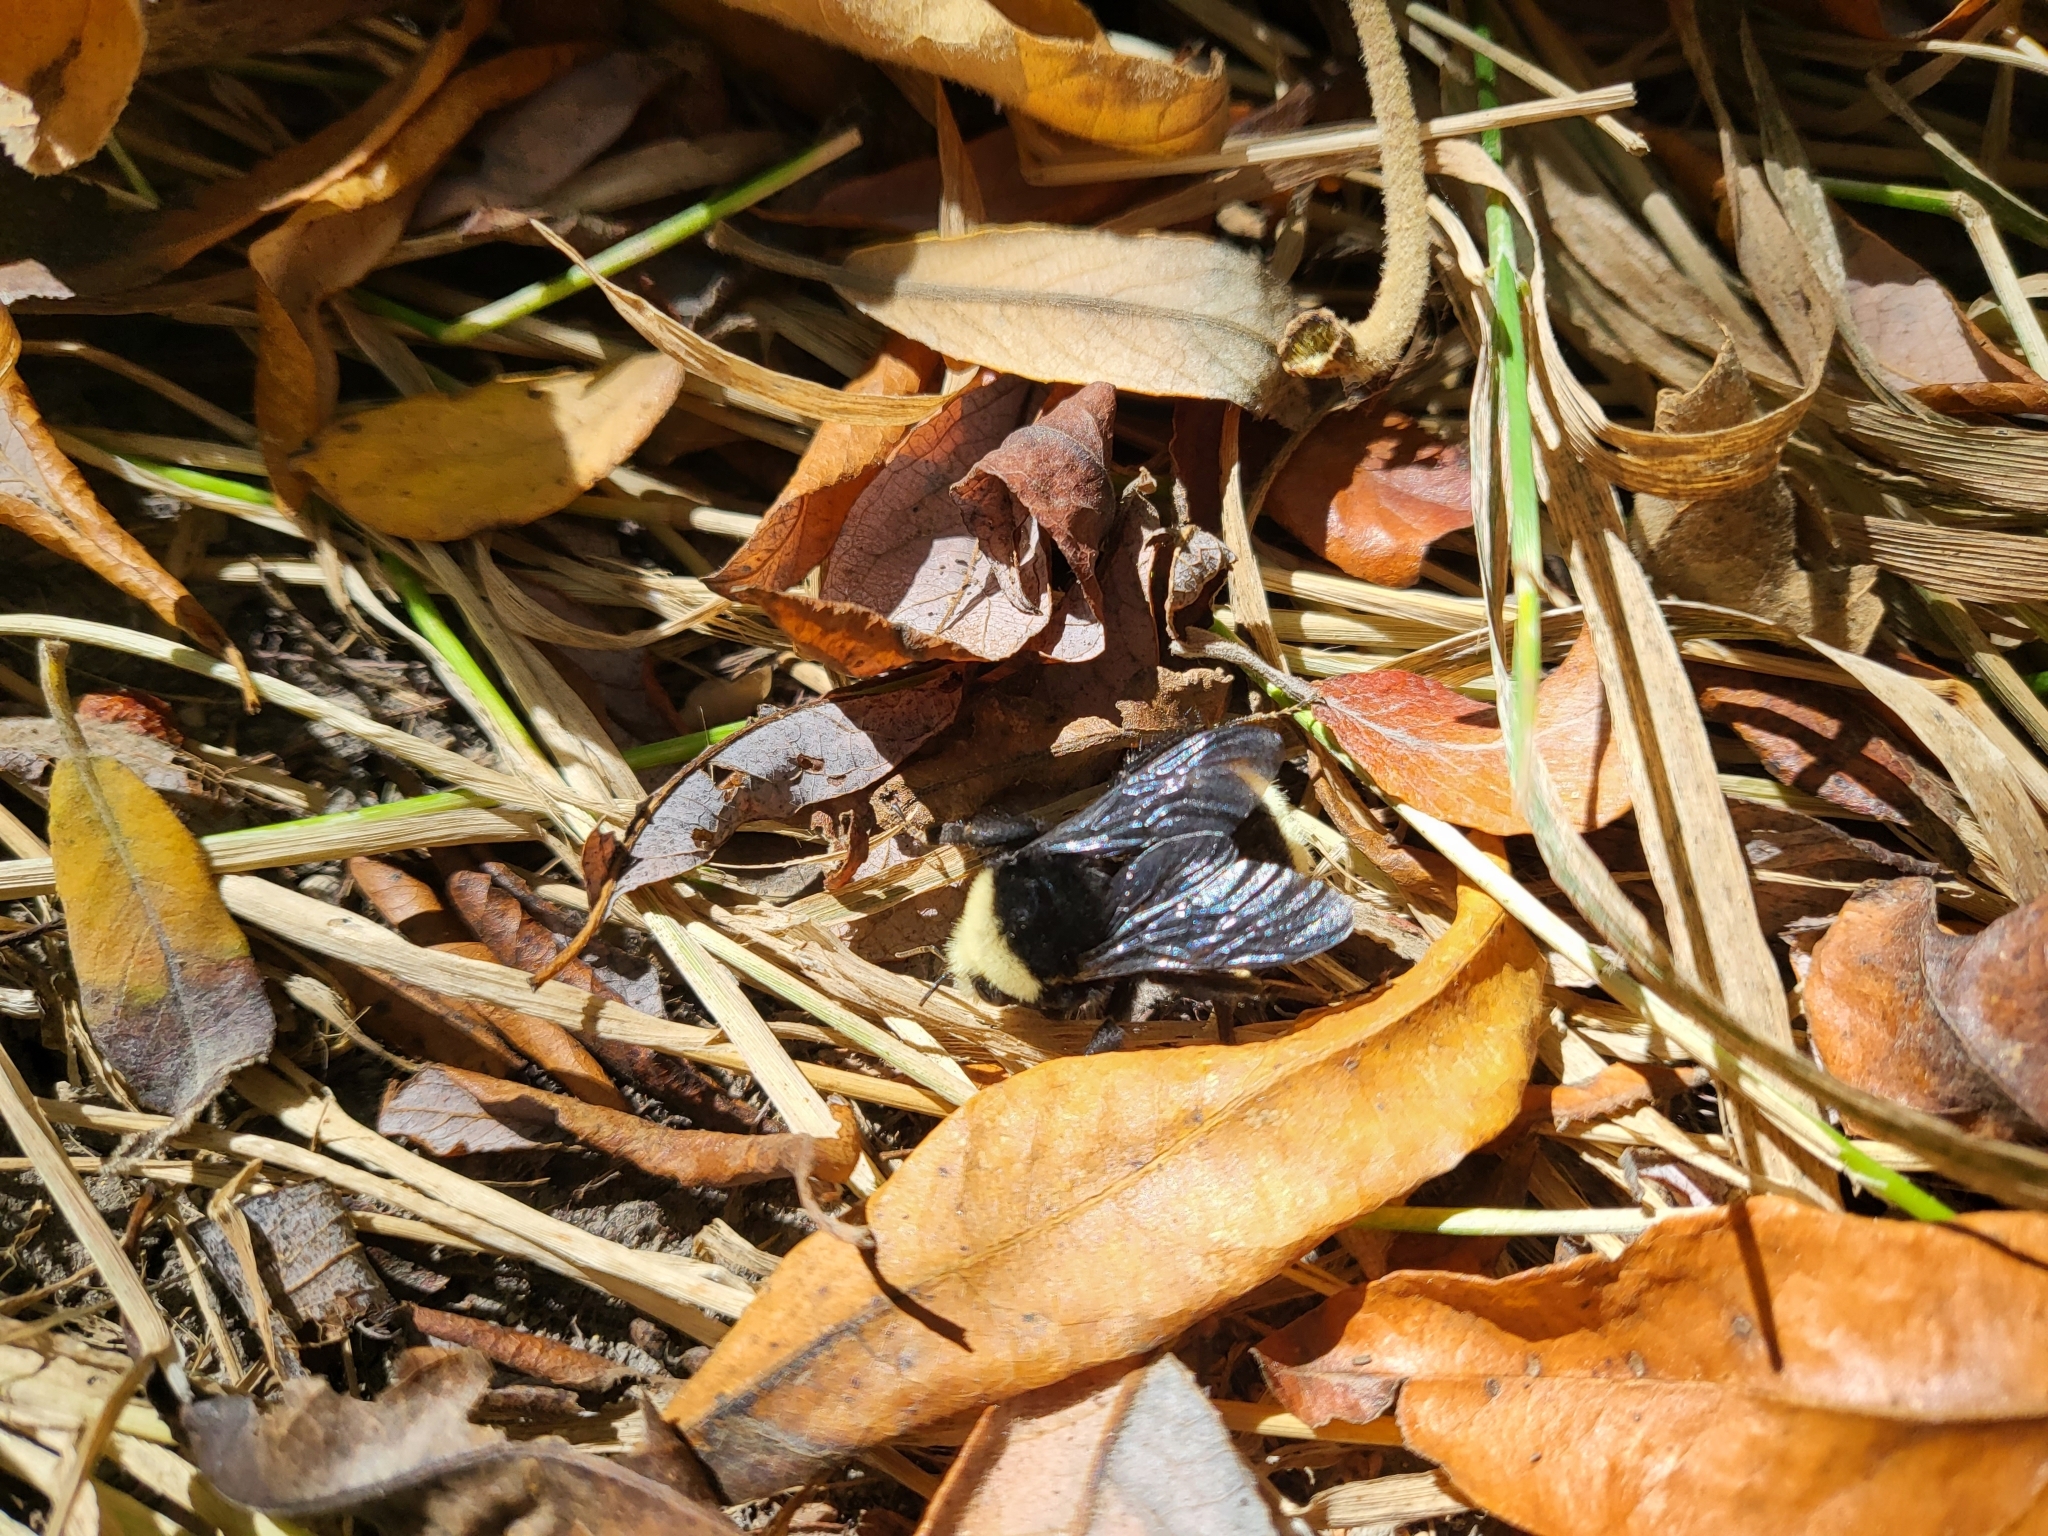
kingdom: Animalia
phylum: Arthropoda
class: Insecta
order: Hymenoptera
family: Apidae
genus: Bombus
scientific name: Bombus vosnesenskii
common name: Vosnesensky bumble bee
